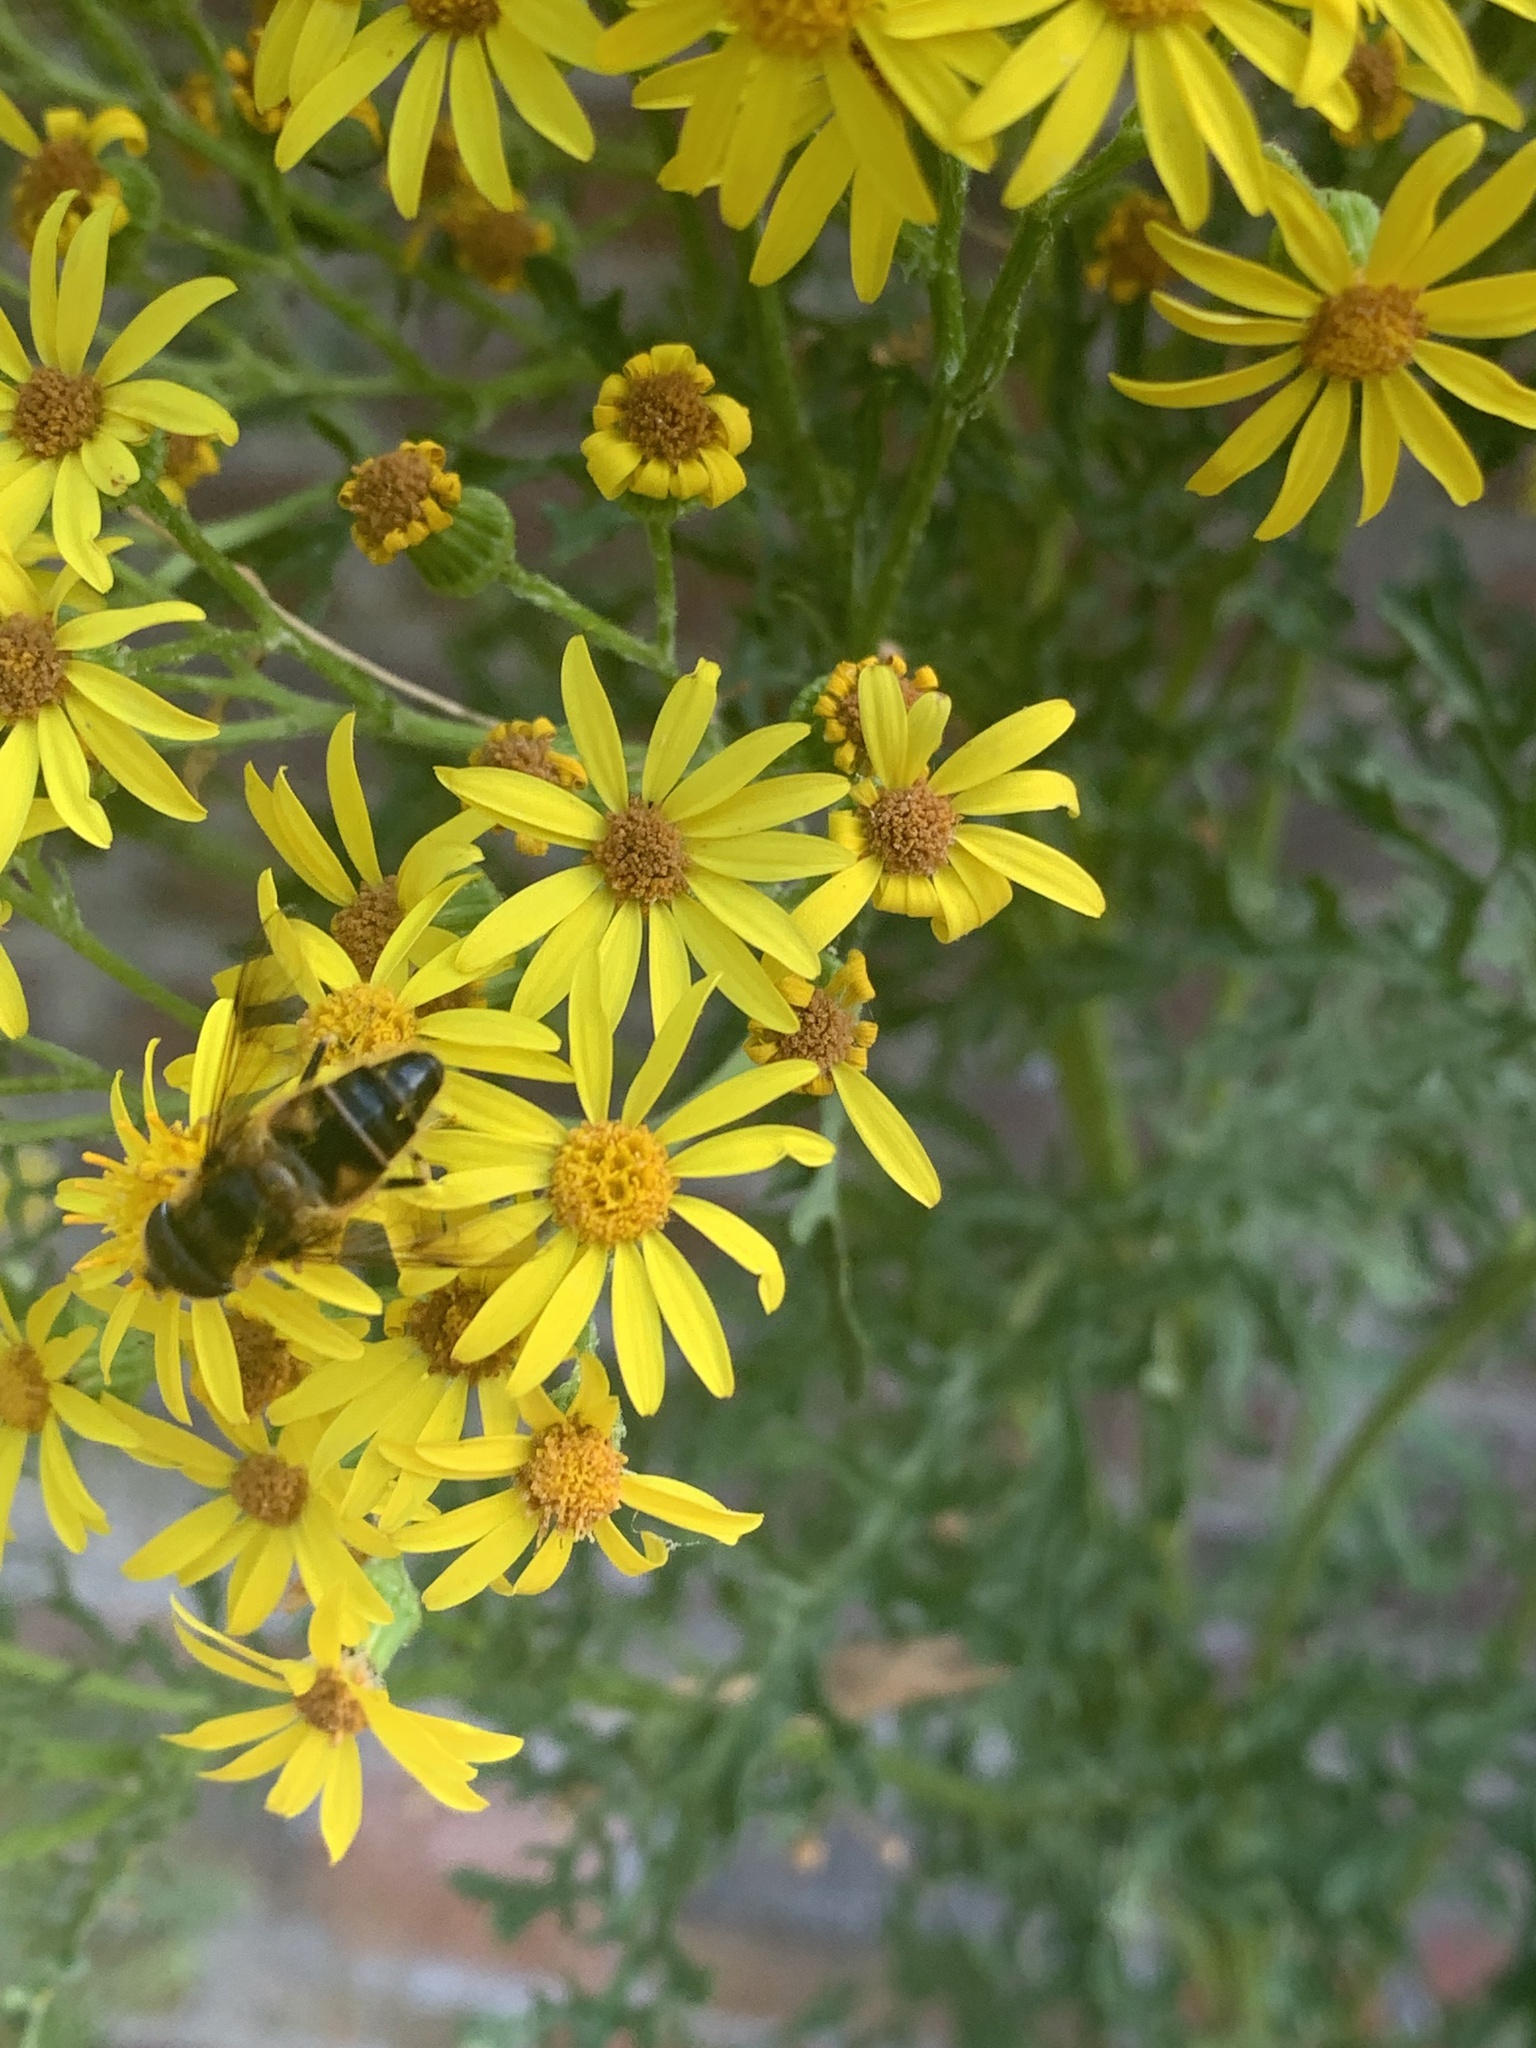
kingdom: Animalia
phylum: Arthropoda
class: Insecta
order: Diptera
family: Syrphidae
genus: Eristalis
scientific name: Eristalis pertinax
